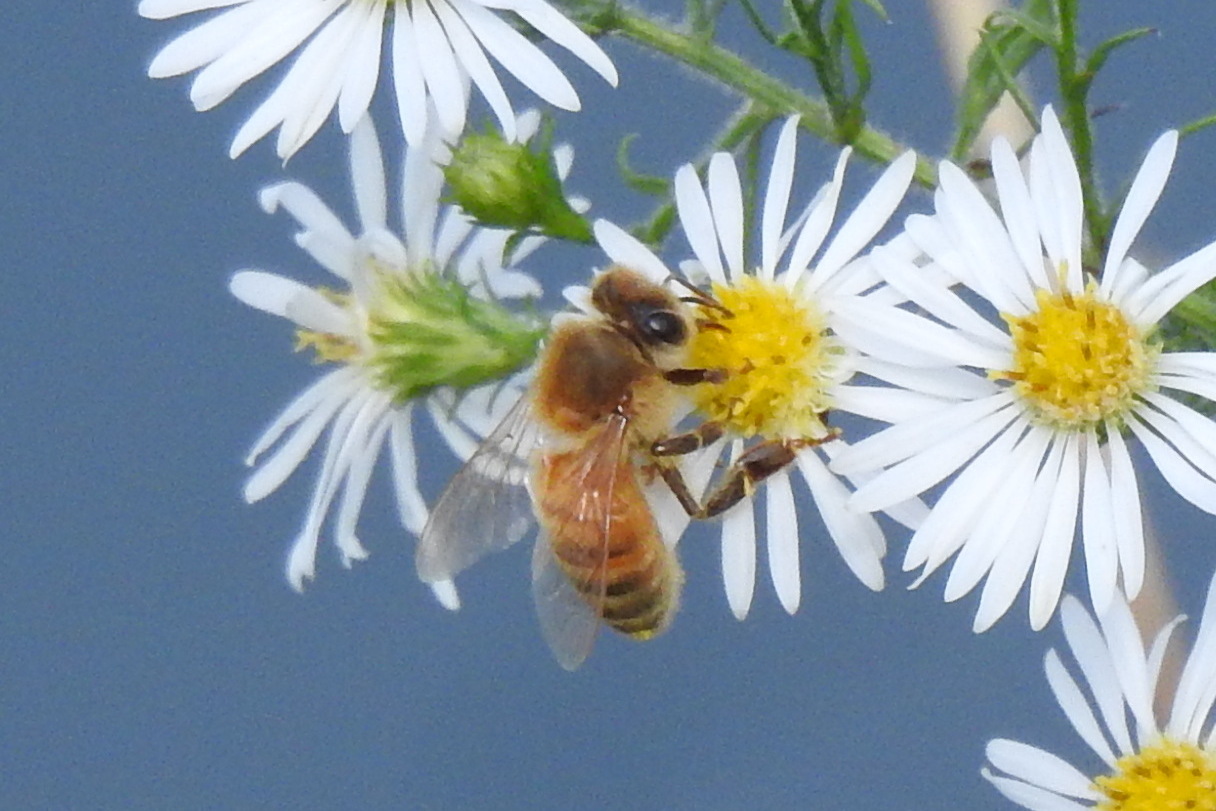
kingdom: Animalia
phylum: Arthropoda
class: Insecta
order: Hymenoptera
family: Apidae
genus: Apis
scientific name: Apis mellifera
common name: Honey bee
